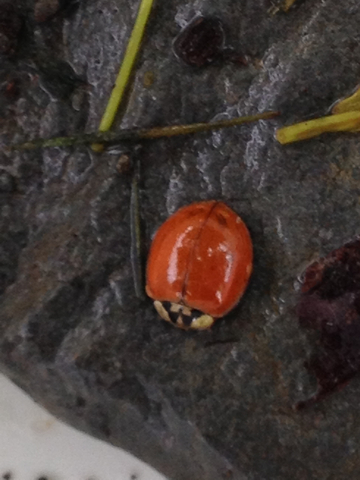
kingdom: Animalia
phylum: Arthropoda
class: Insecta
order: Coleoptera
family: Coccinellidae
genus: Harmonia
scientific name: Harmonia axyridis
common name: Harlequin ladybird
